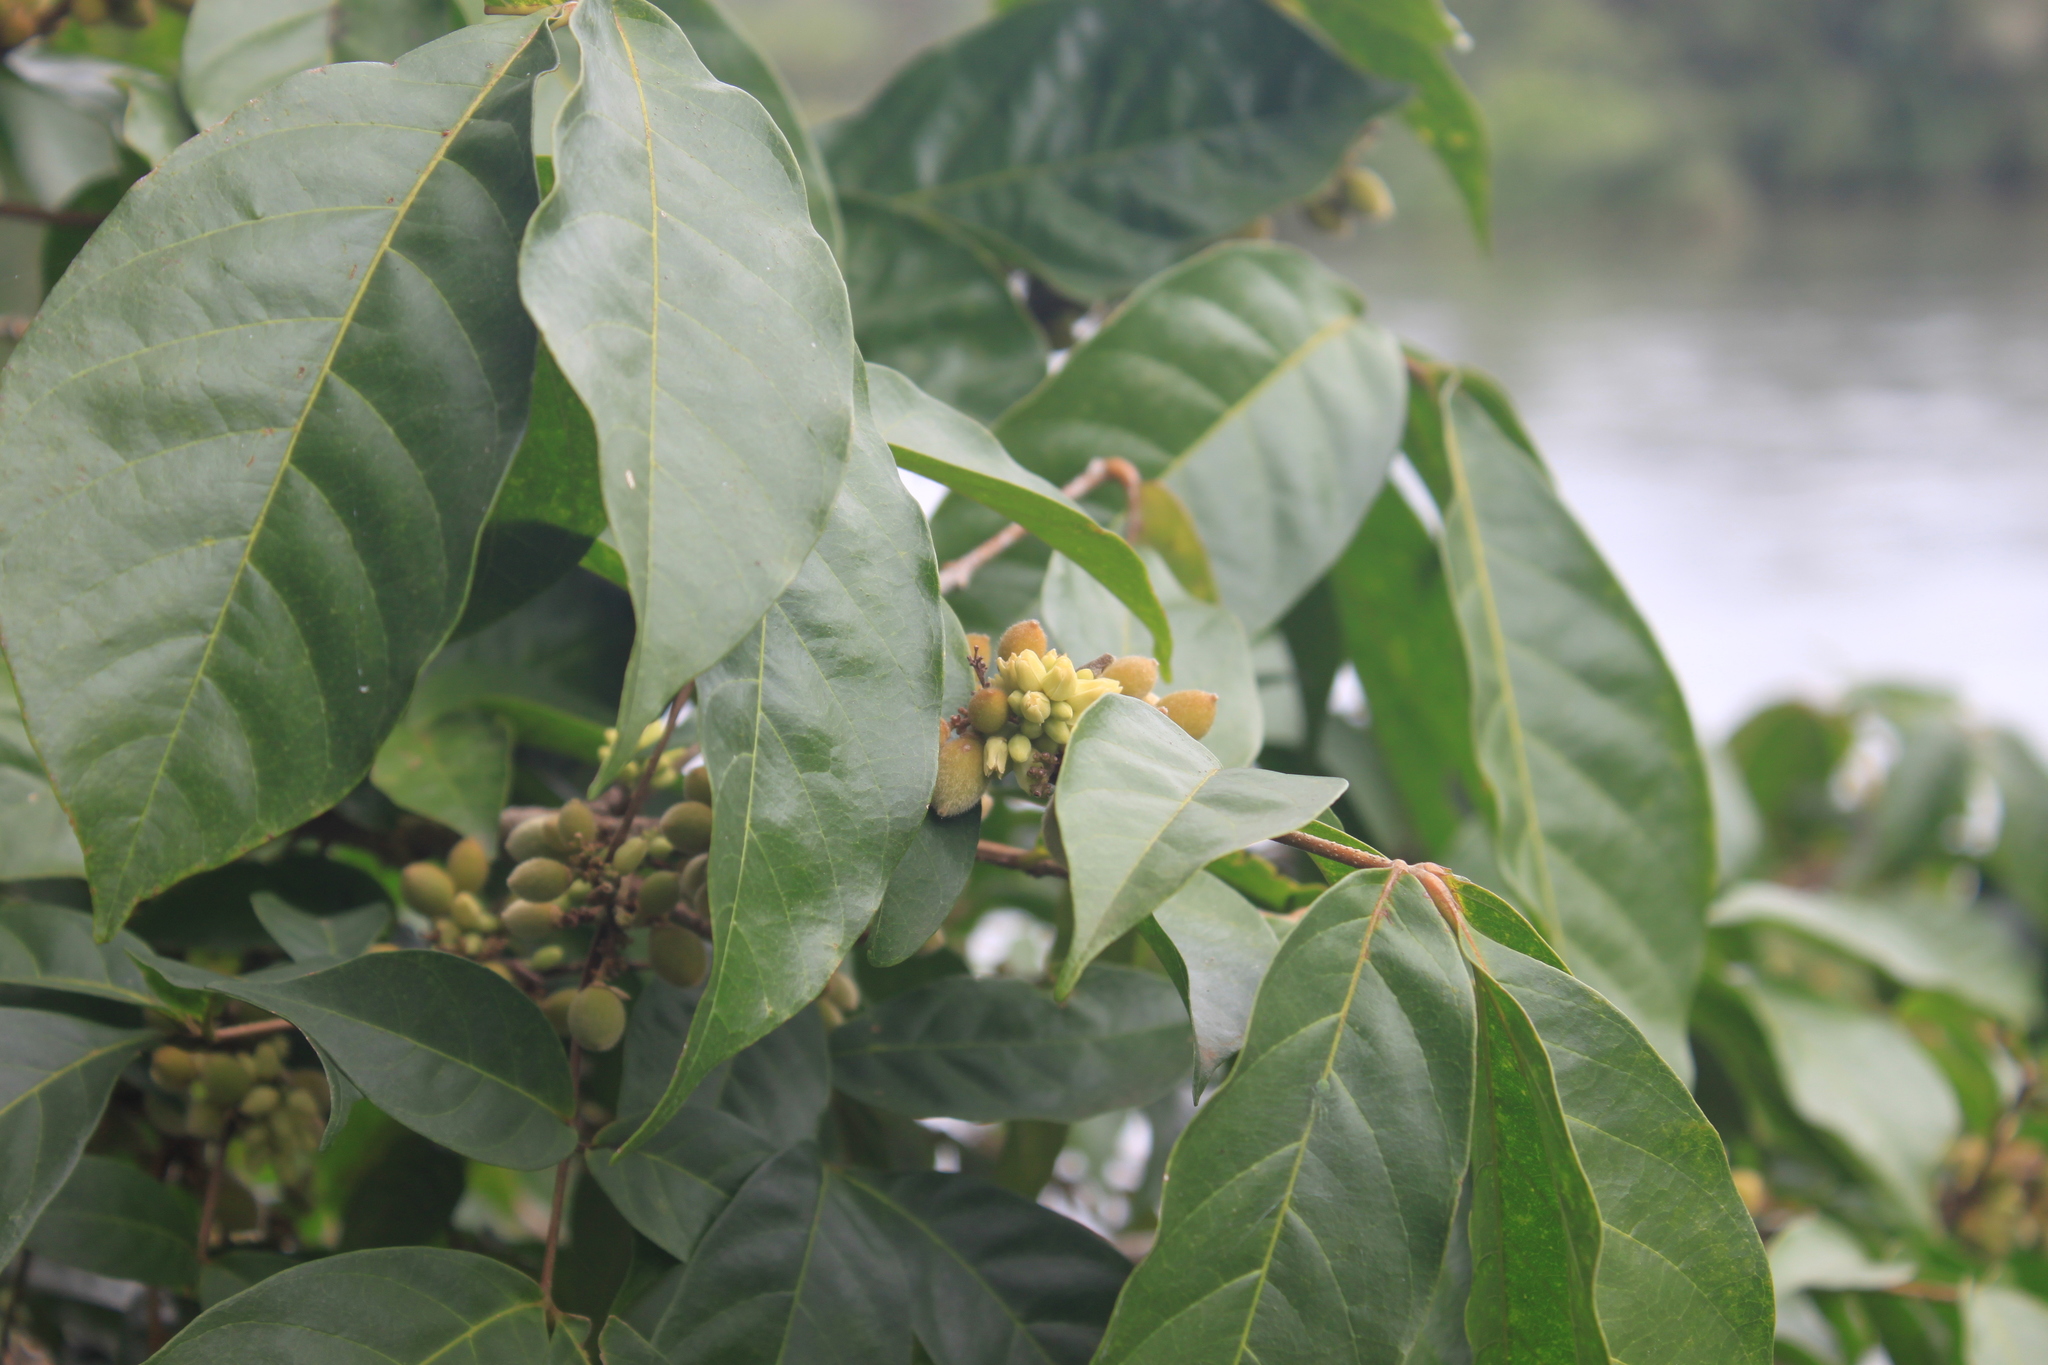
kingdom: Plantae
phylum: Tracheophyta
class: Magnoliopsida
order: Sapindales
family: Meliaceae
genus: Trichilia
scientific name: Trichilia pallida
